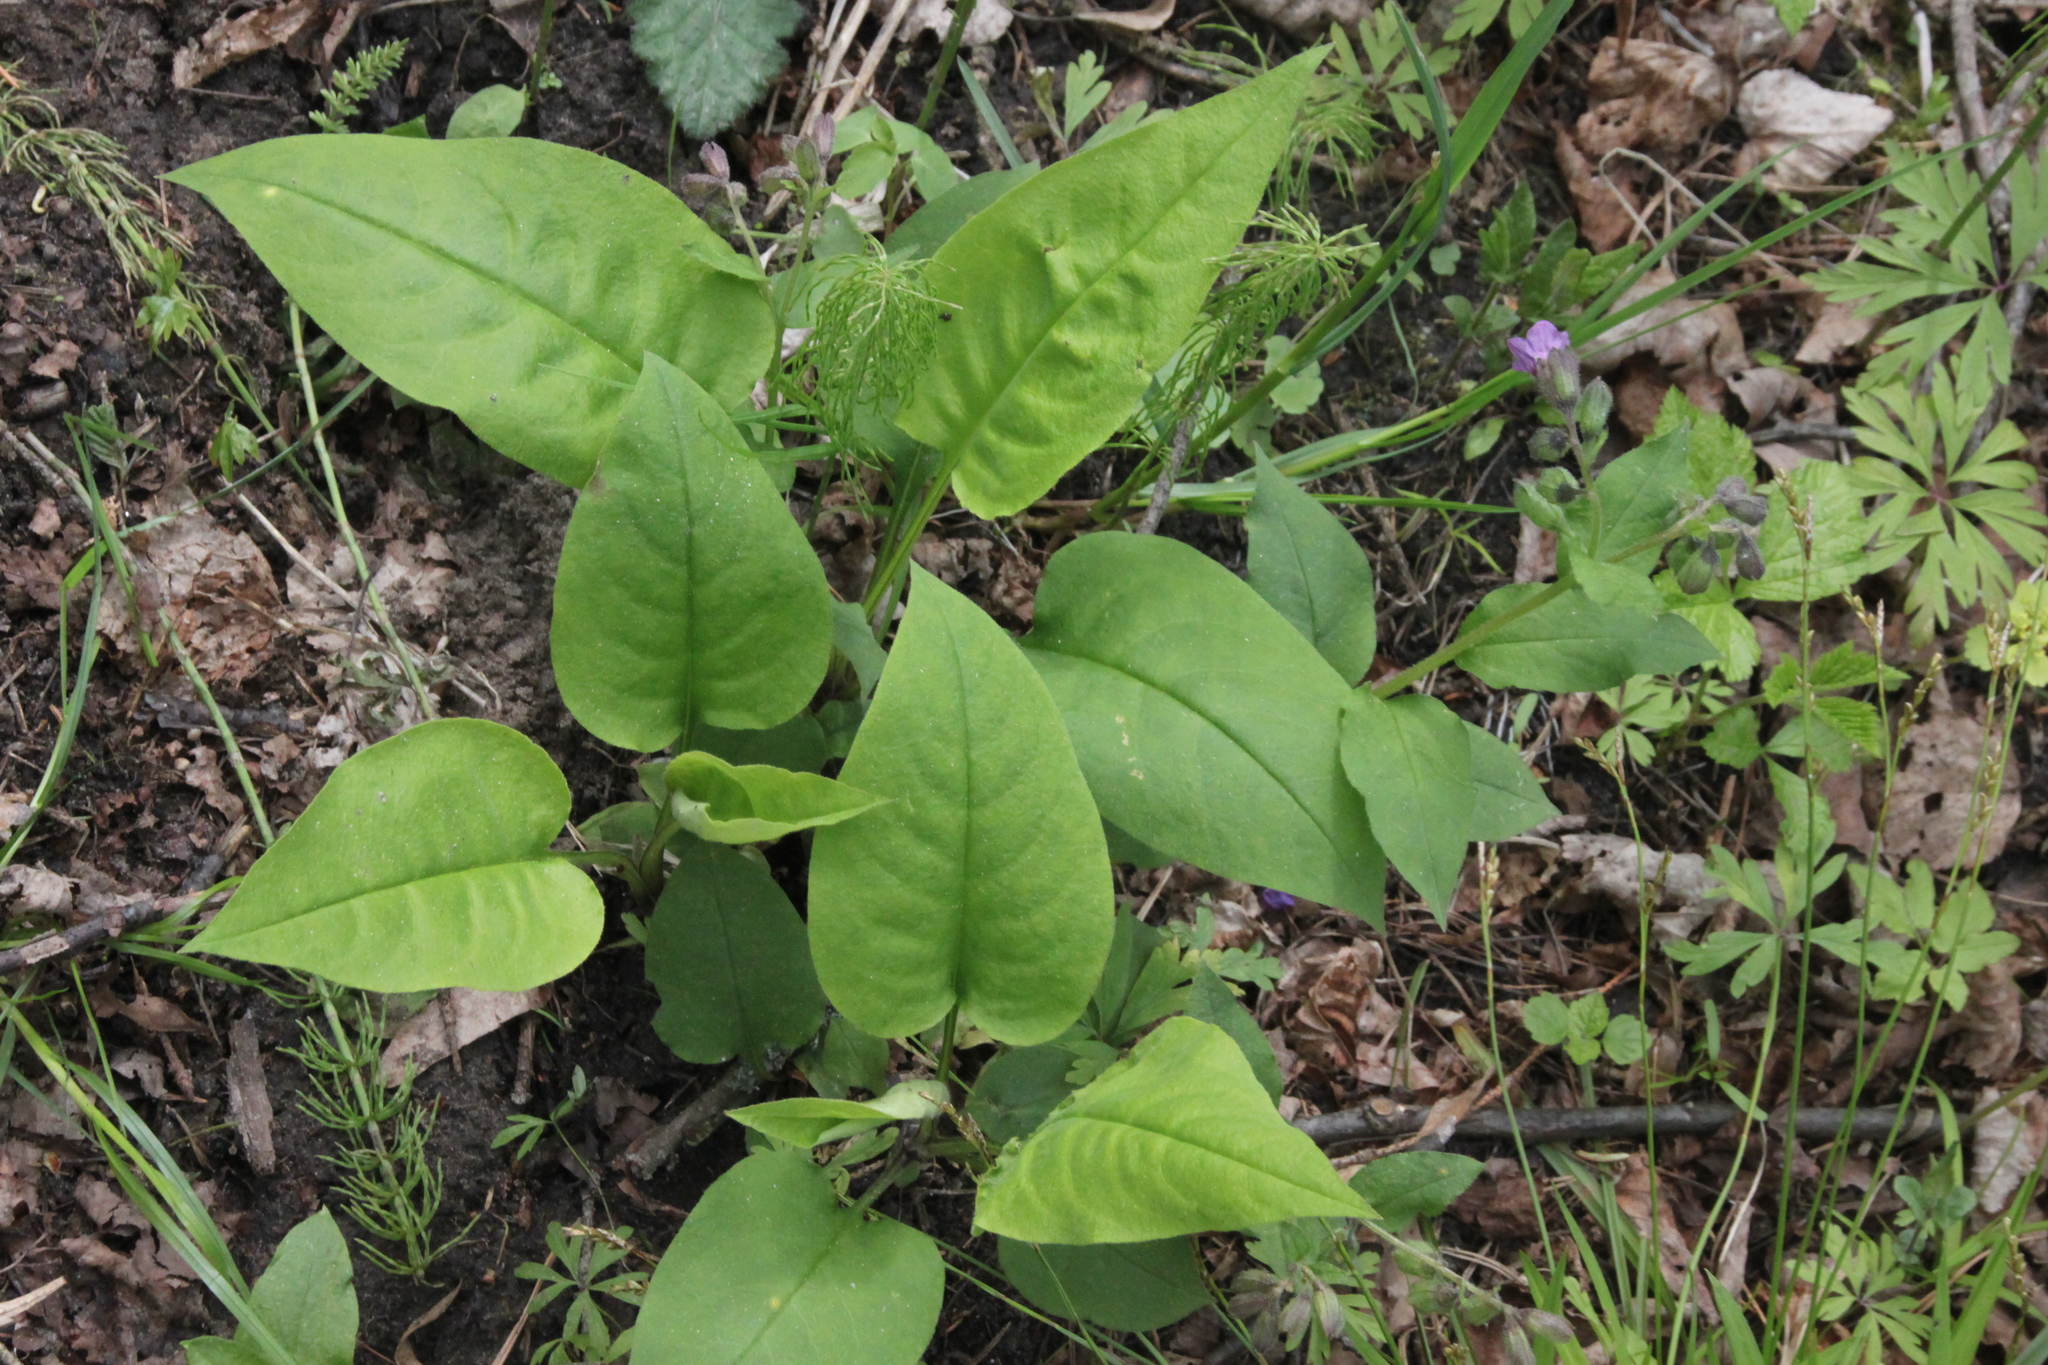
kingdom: Plantae
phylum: Tracheophyta
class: Magnoliopsida
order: Boraginales
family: Boraginaceae
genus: Pulmonaria
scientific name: Pulmonaria obscura
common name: Suffolk lungwort
